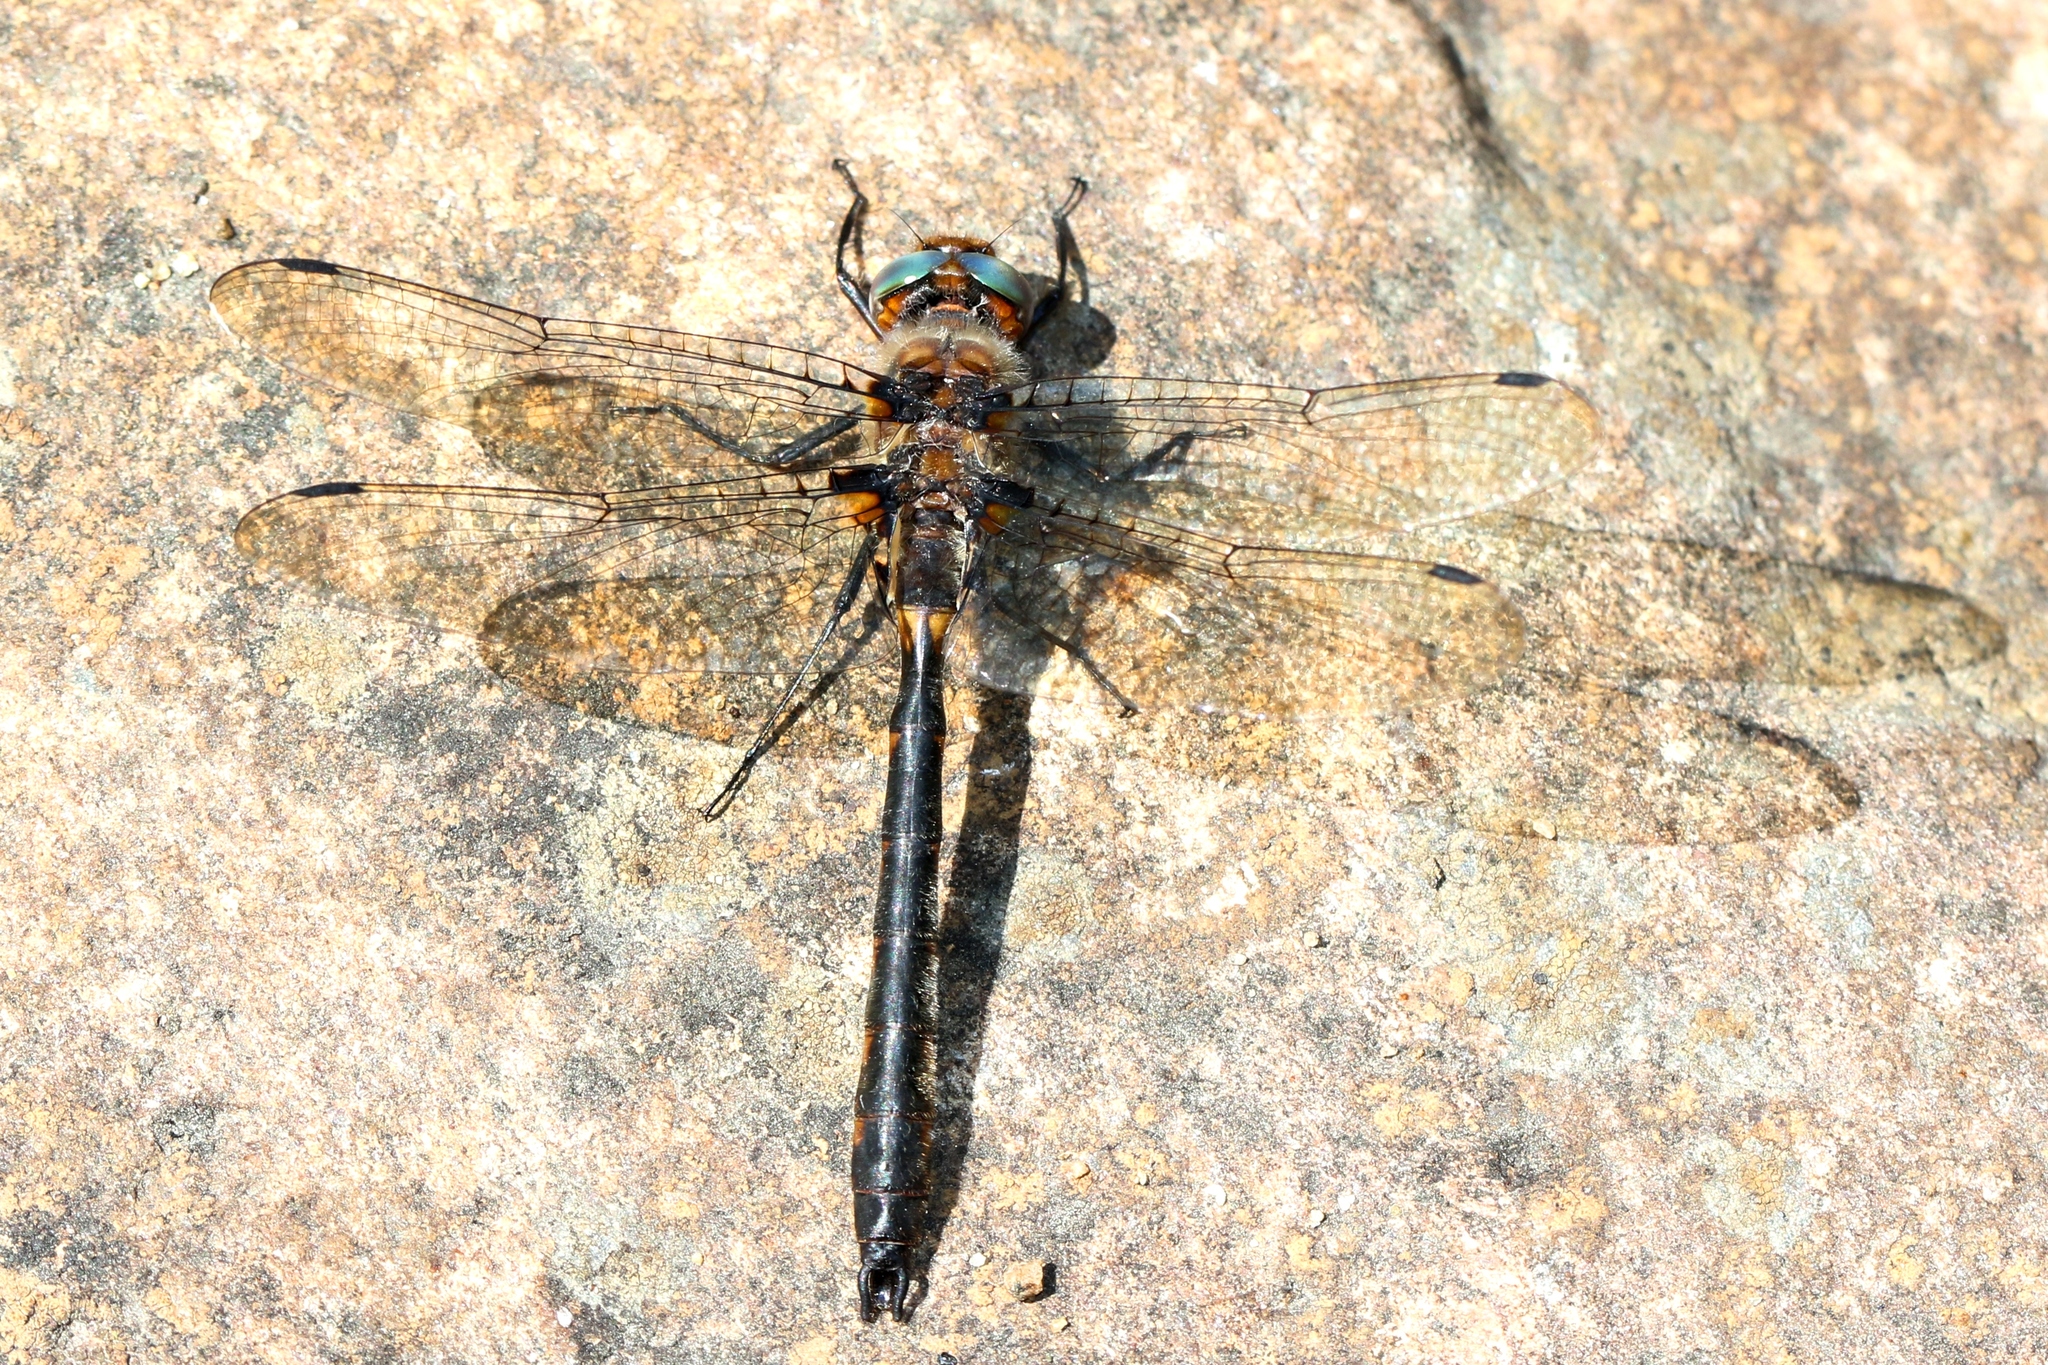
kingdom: Animalia
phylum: Arthropoda
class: Insecta
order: Odonata
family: Corduliidae
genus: Helocordulia
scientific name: Helocordulia uhleri
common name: Uhler's sundragon
